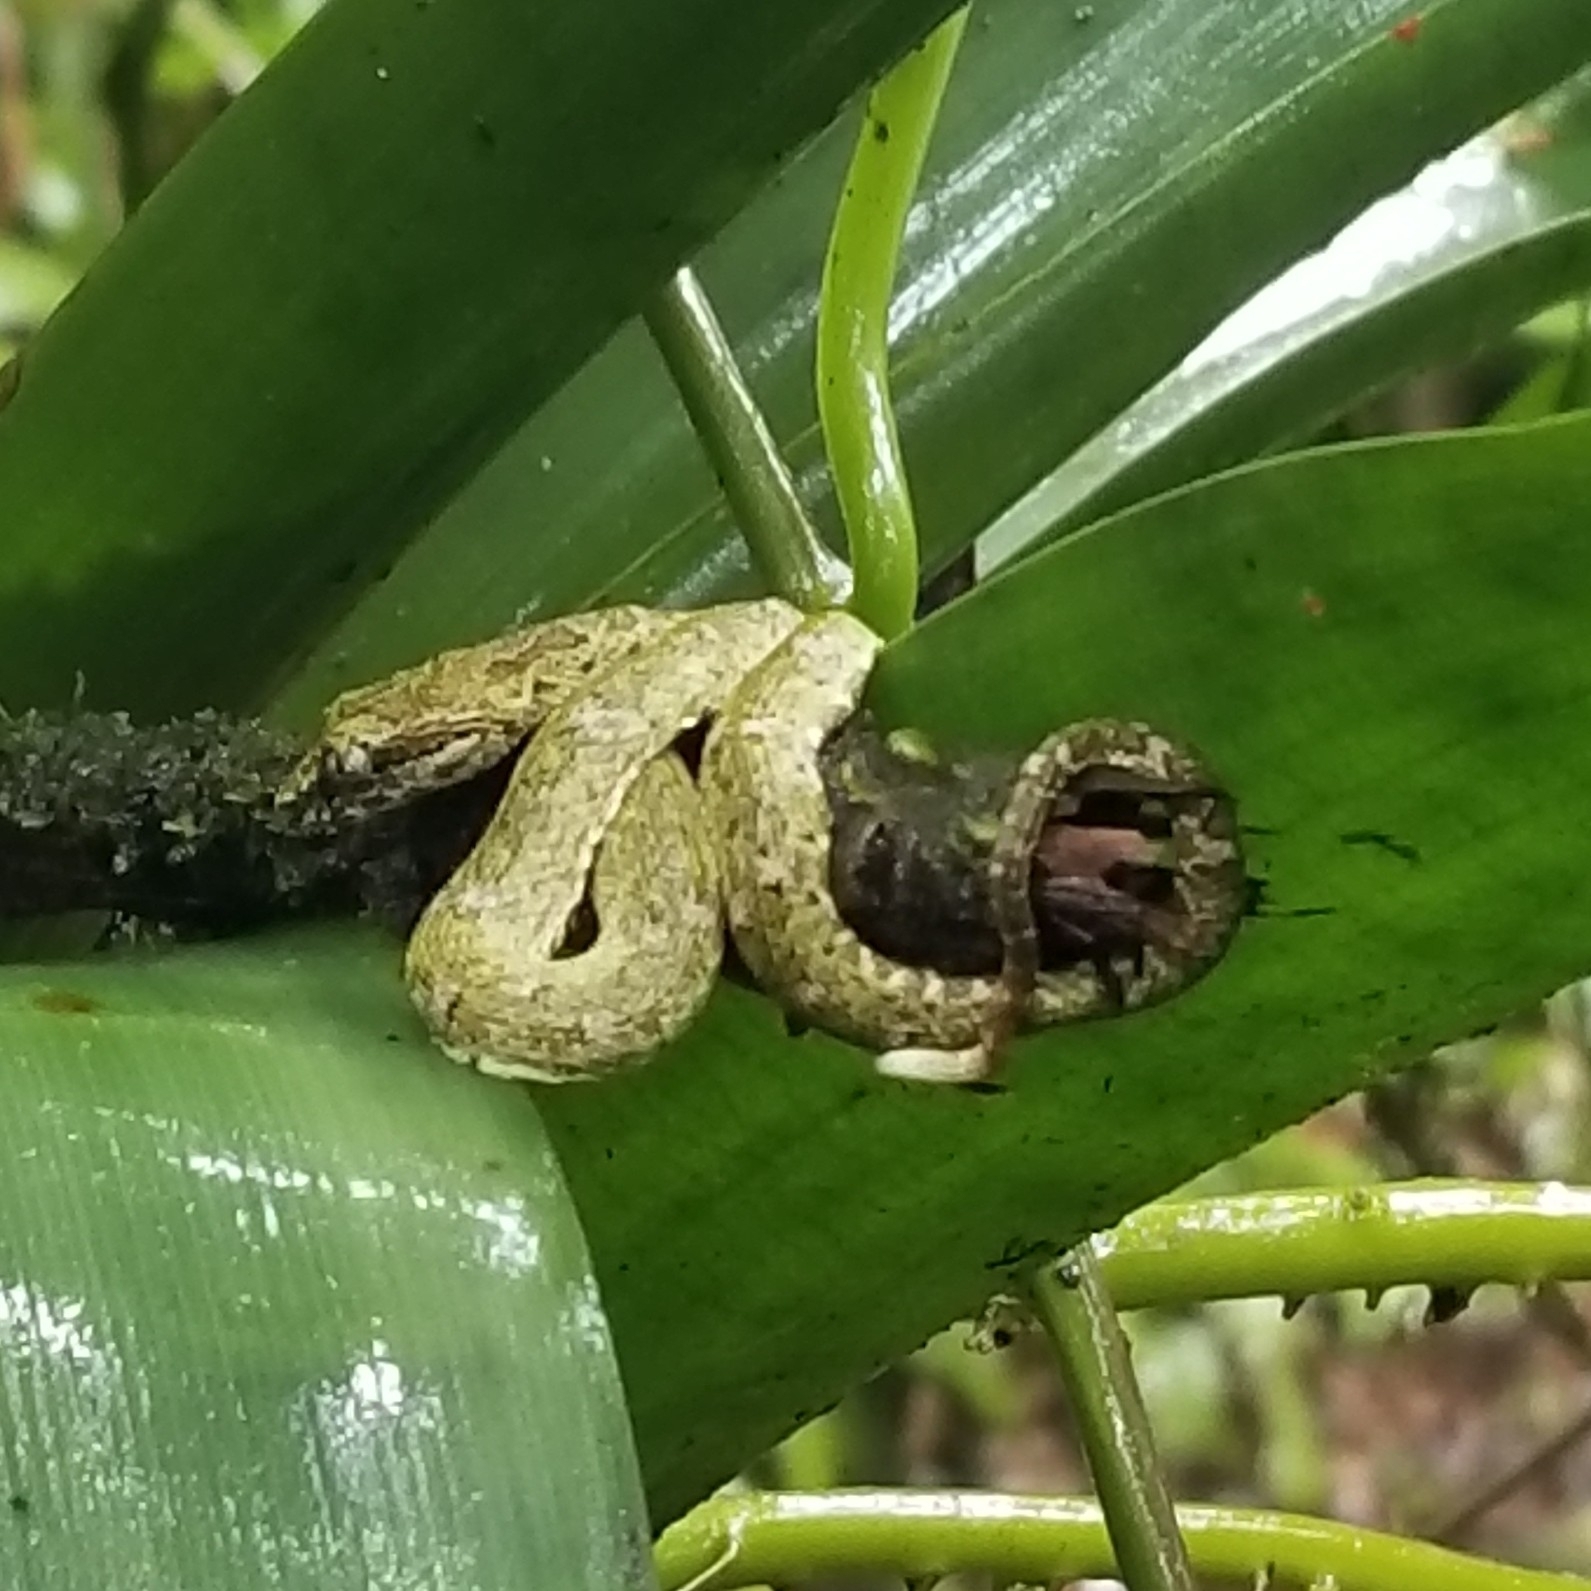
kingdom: Animalia
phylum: Chordata
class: Squamata
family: Viperidae
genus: Bothriechis
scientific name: Bothriechis schlegelii
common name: Eyelash viper
